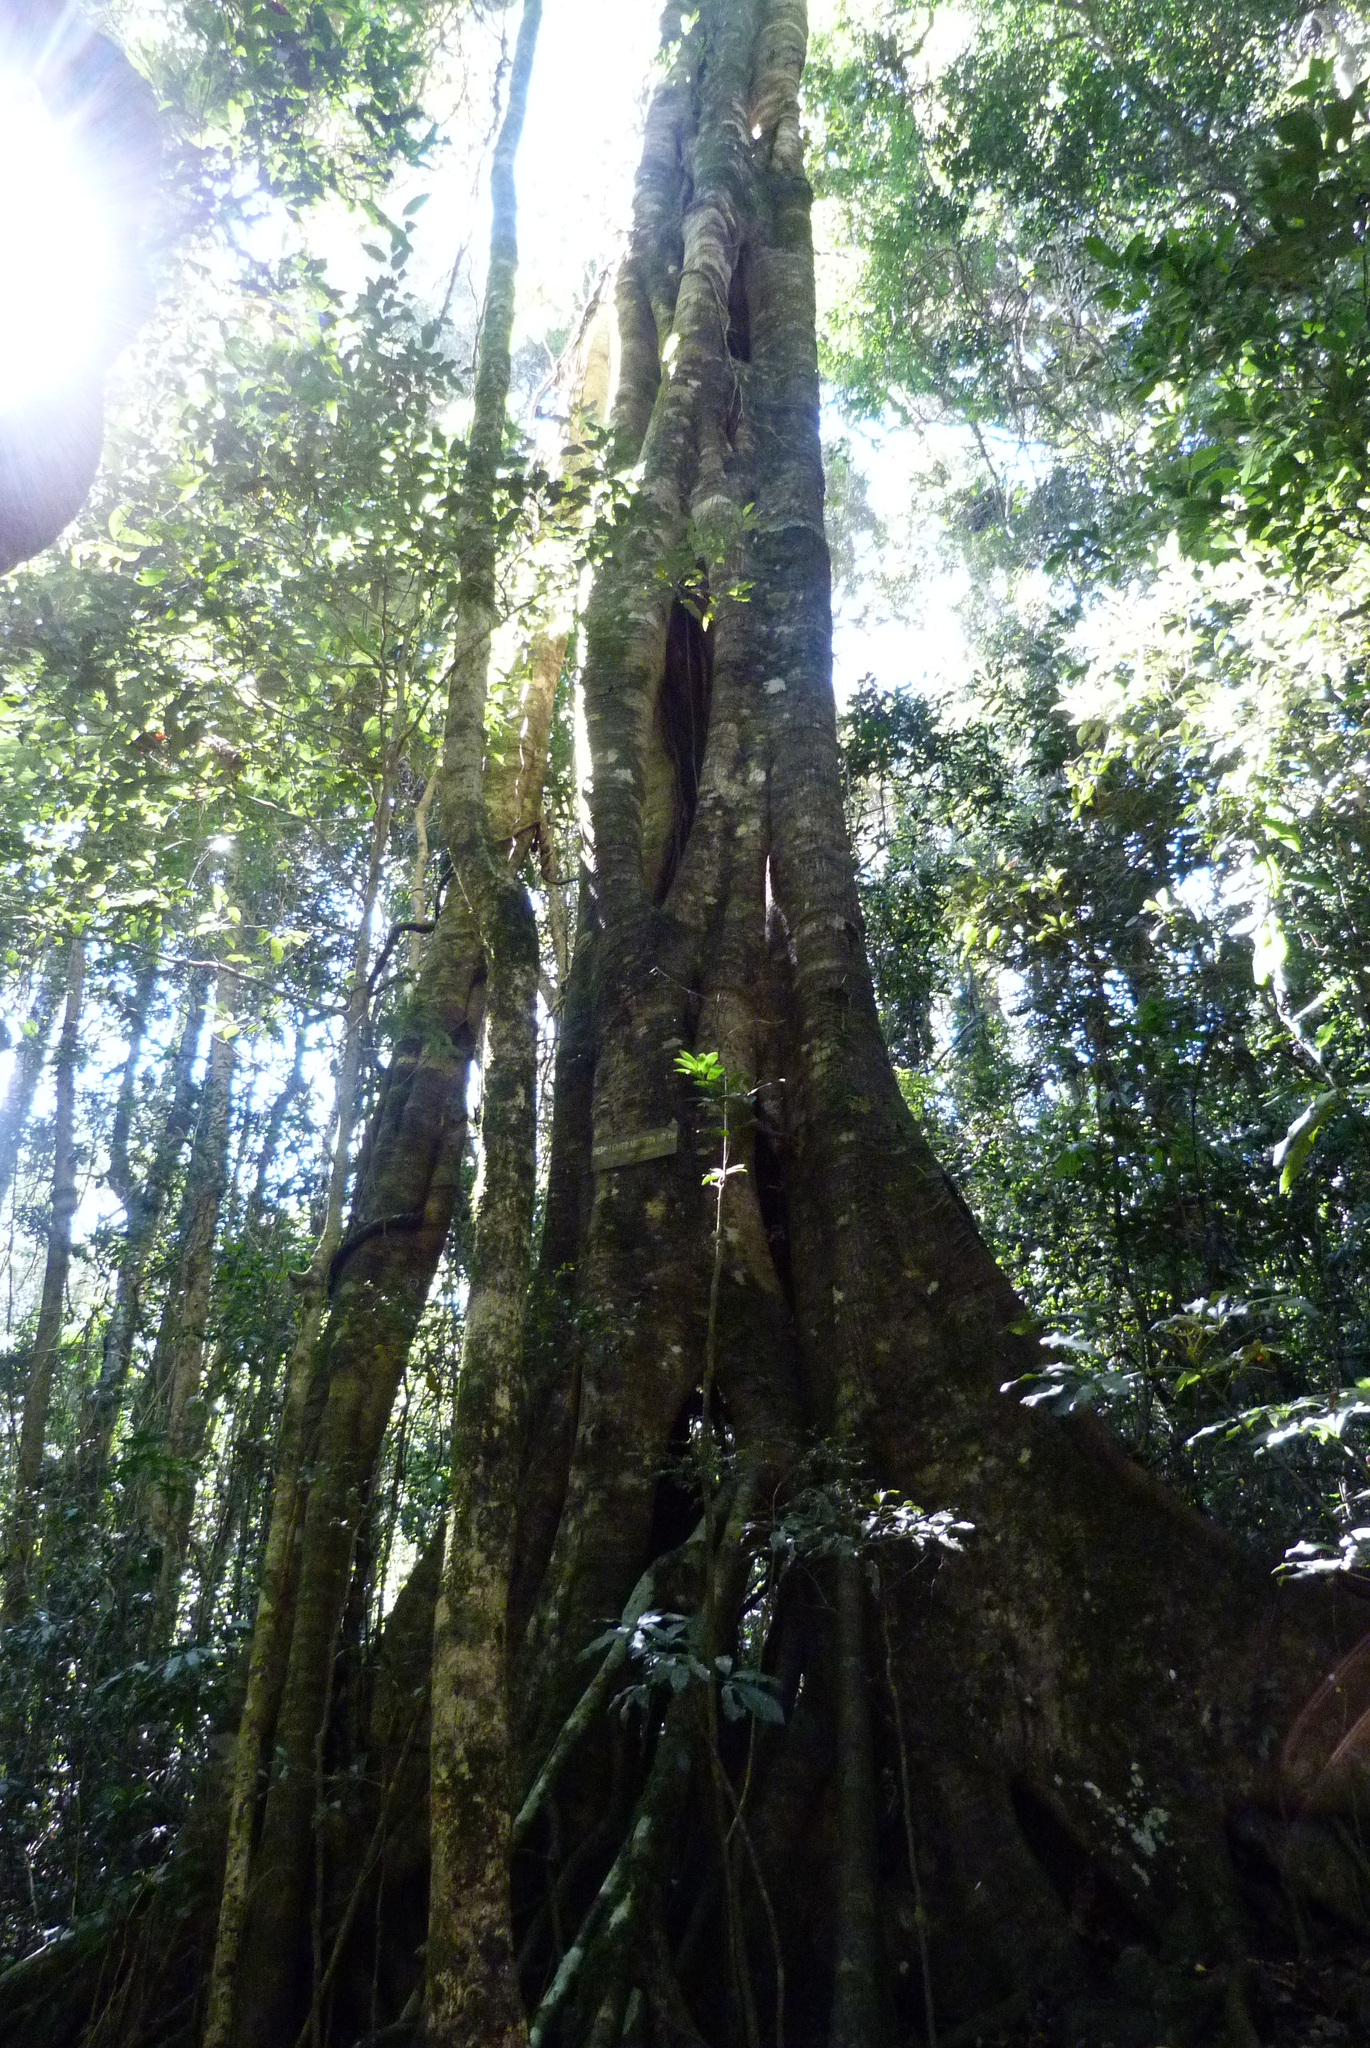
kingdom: Plantae
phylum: Tracheophyta
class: Magnoliopsida
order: Rosales
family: Moraceae
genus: Ficus
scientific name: Ficus macrophylla
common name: Moreton bay fig
